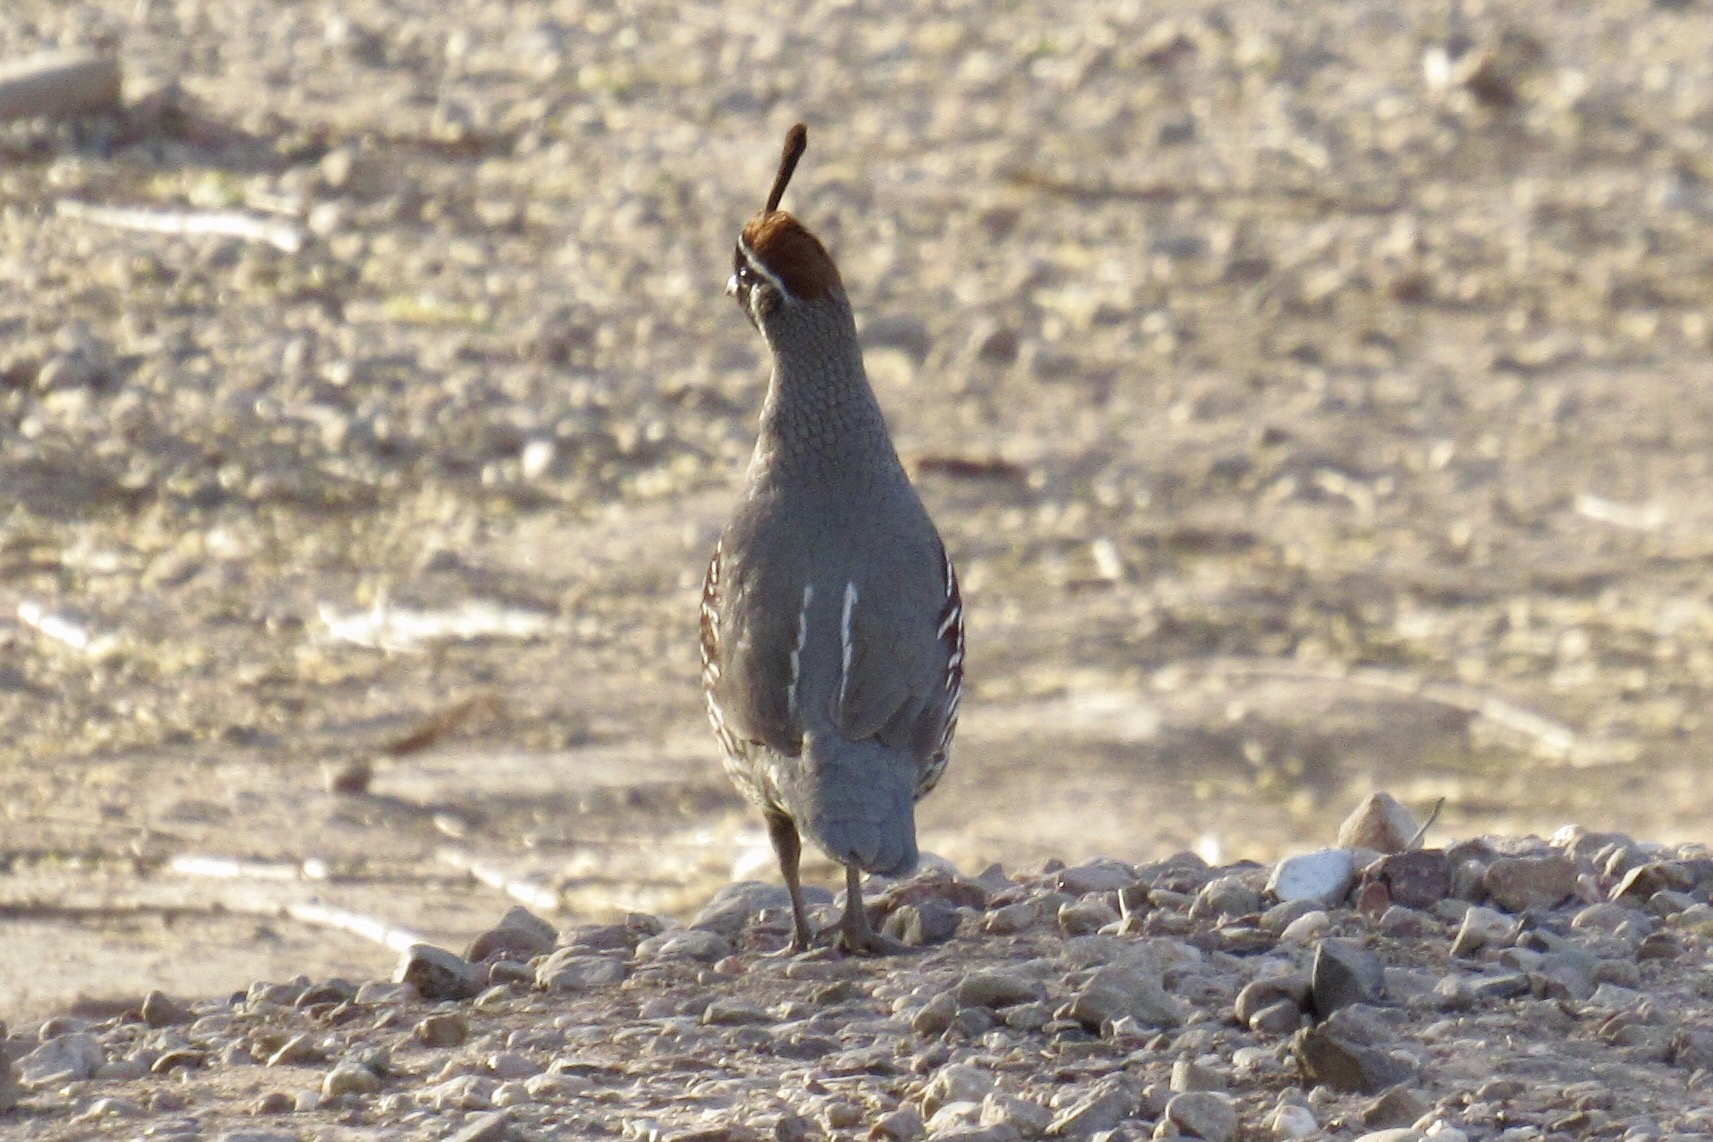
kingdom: Animalia
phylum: Chordata
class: Aves
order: Galliformes
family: Odontophoridae
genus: Callipepla
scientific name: Callipepla gambelii
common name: Gambel's quail
